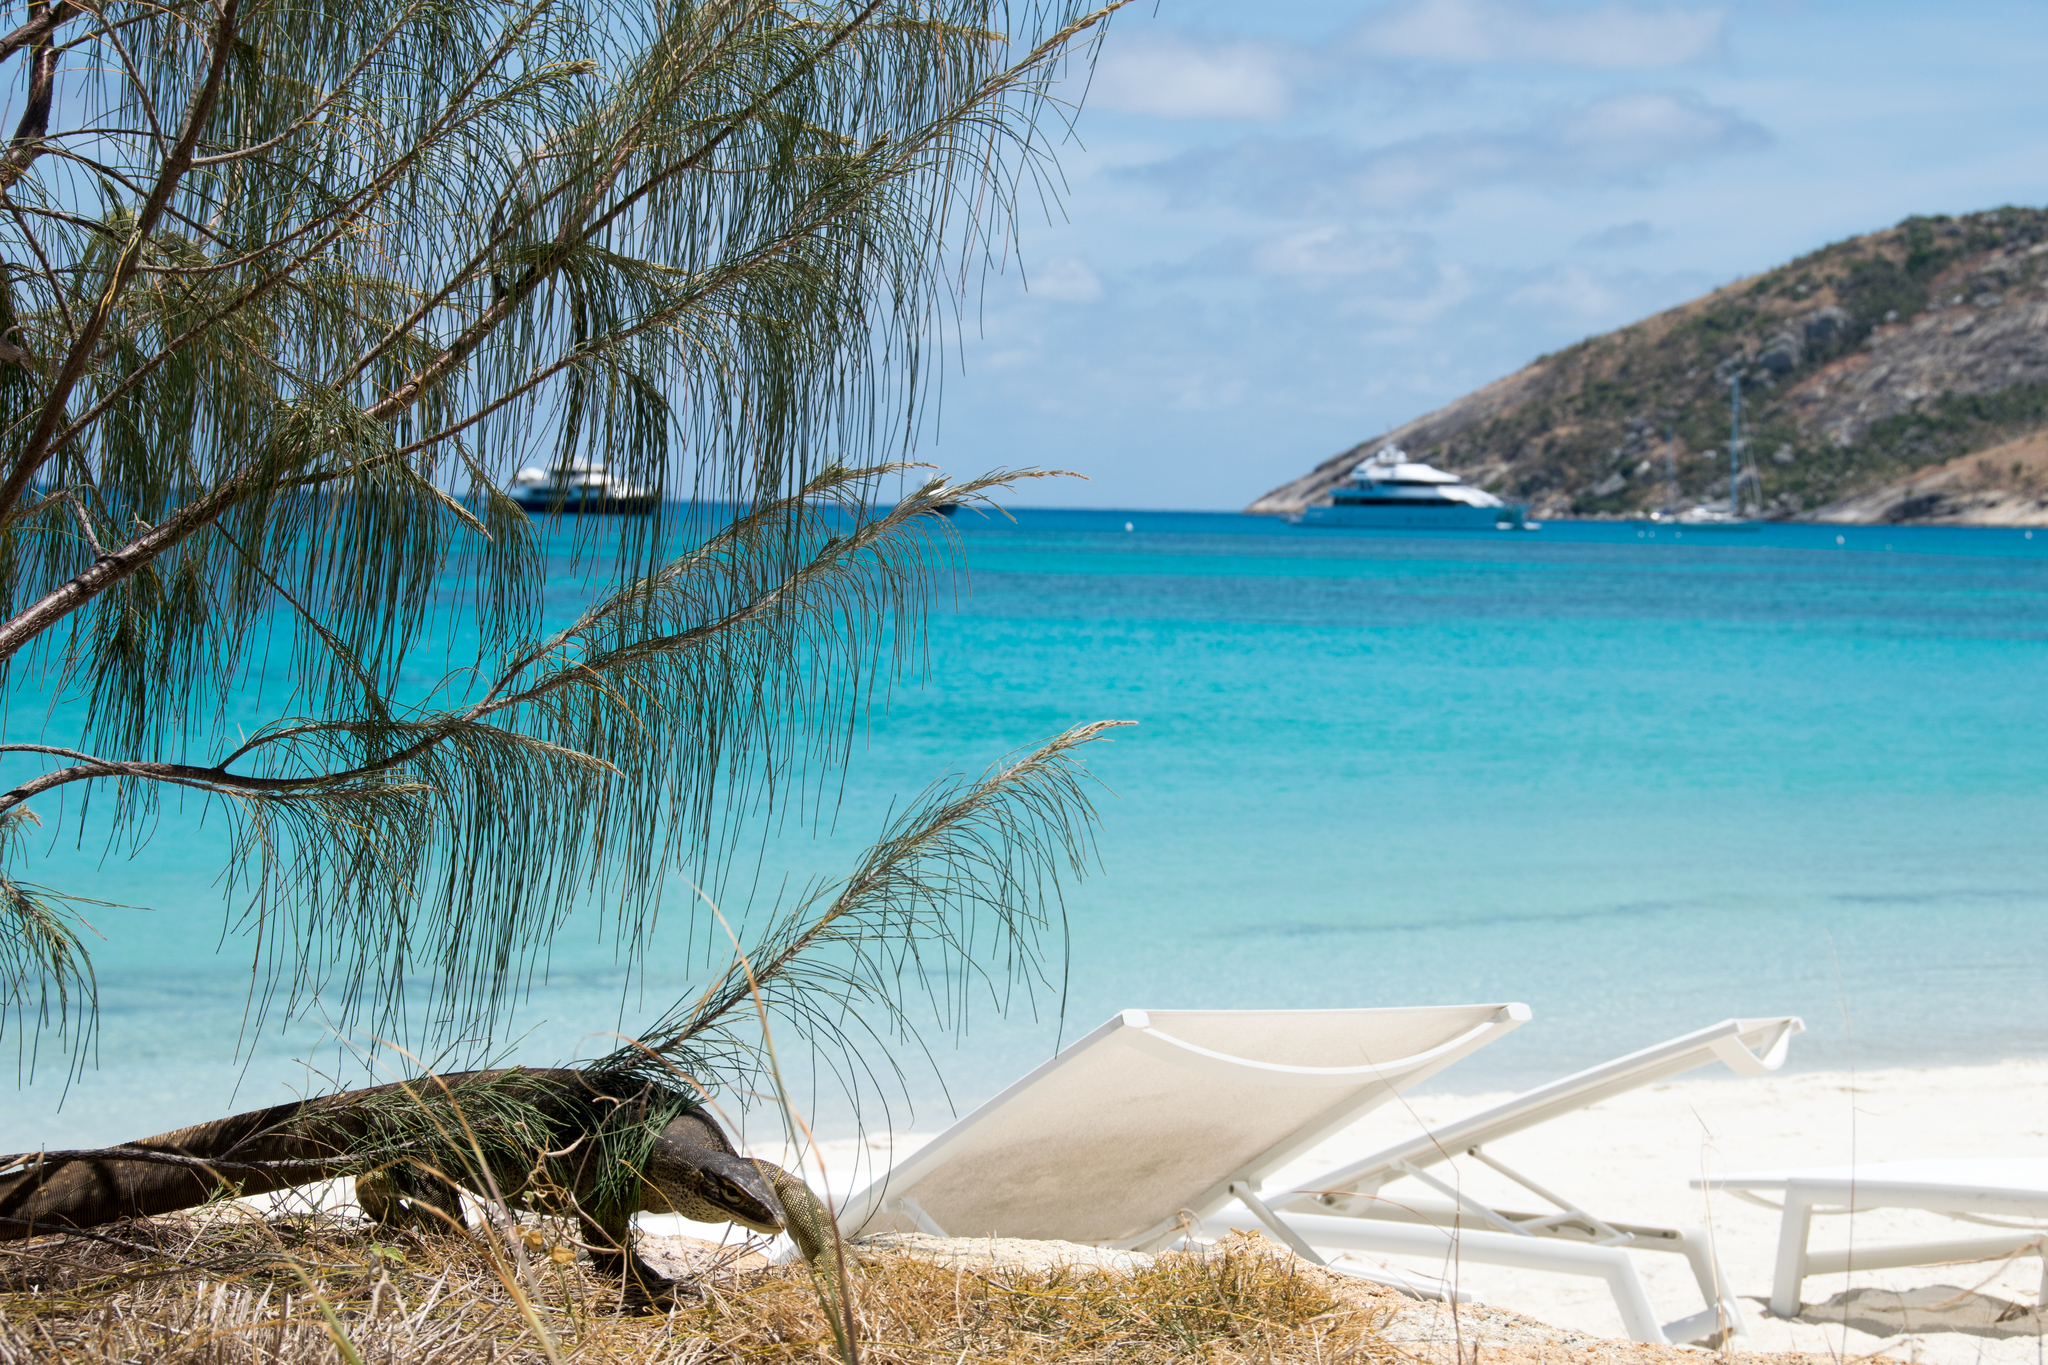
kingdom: Animalia
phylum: Chordata
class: Squamata
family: Varanidae
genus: Varanus
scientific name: Varanus panoptes
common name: Yellow-spotted monitor
